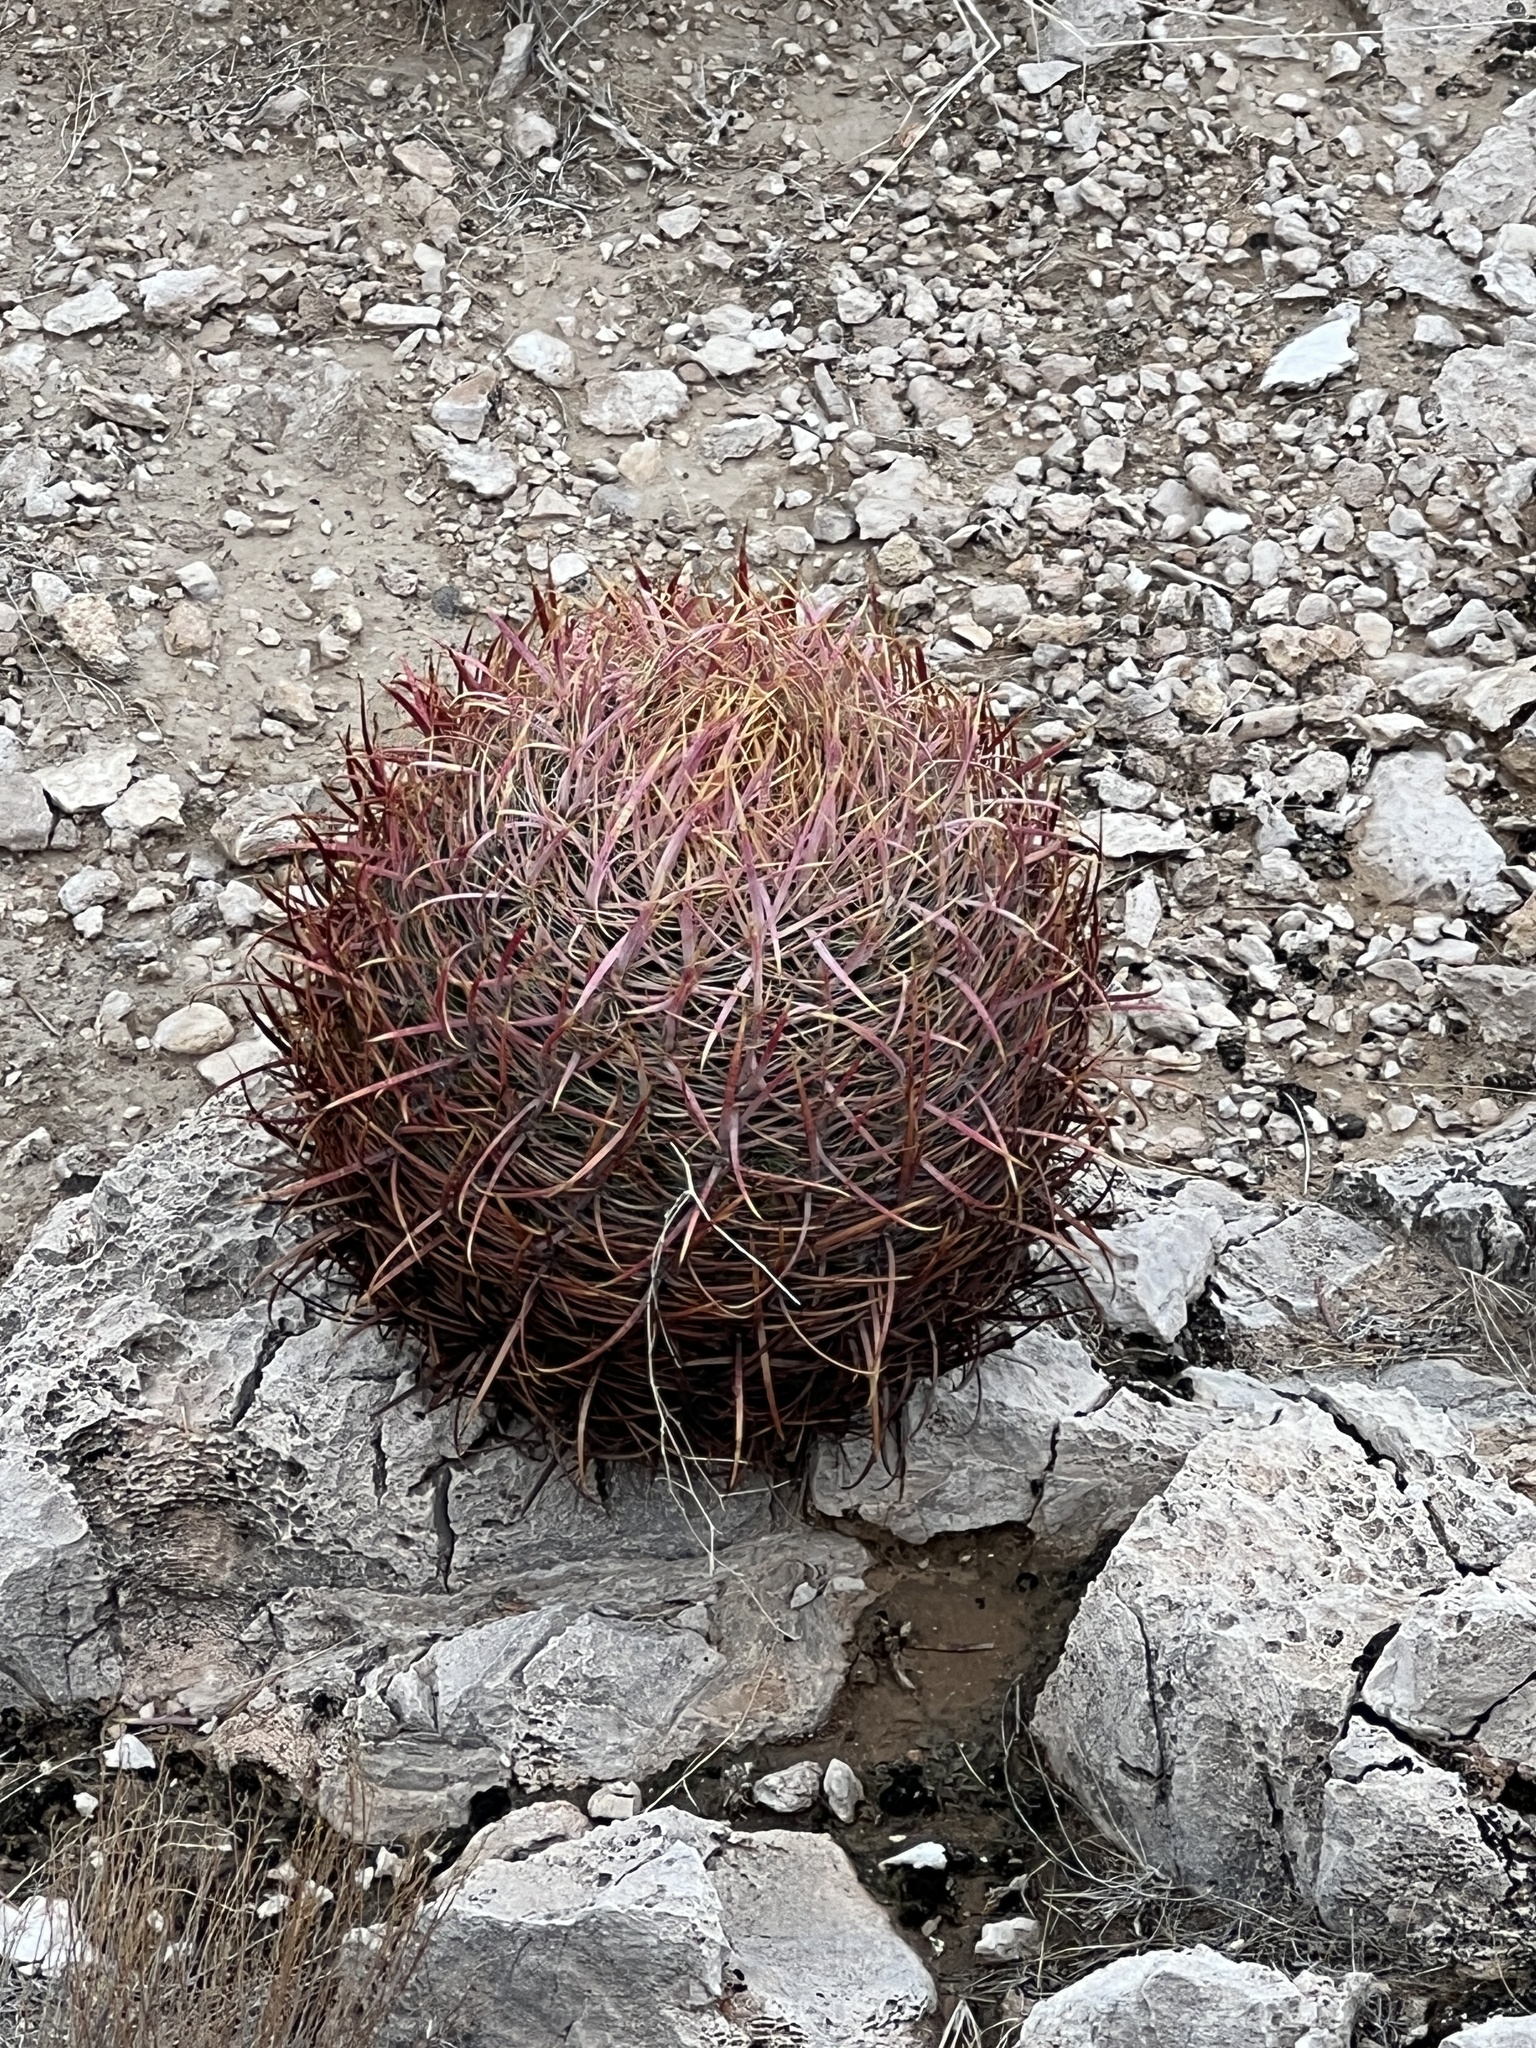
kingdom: Plantae
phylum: Tracheophyta
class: Magnoliopsida
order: Caryophyllales
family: Cactaceae
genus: Ferocactus
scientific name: Ferocactus cylindraceus
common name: California barrel cactus
